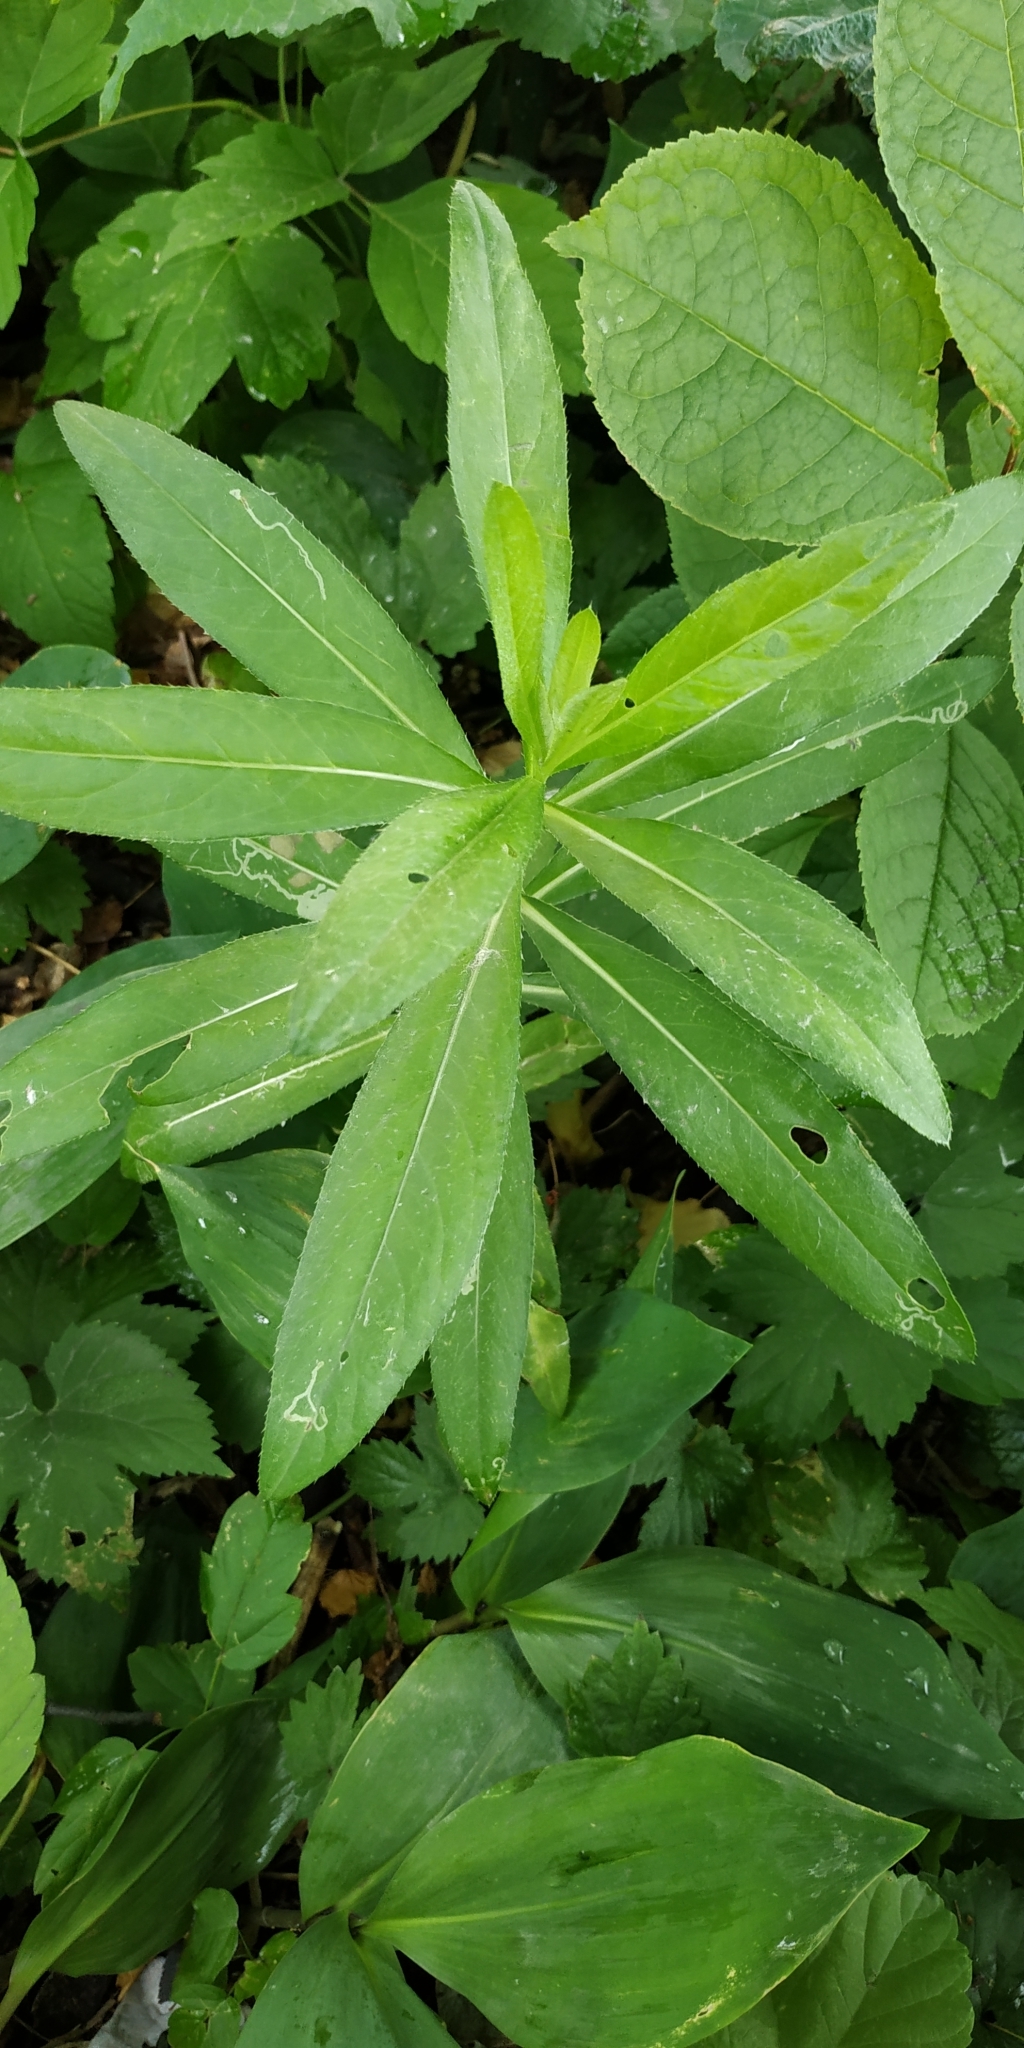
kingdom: Plantae
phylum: Tracheophyta
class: Magnoliopsida
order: Asterales
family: Asteraceae
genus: Cirsium
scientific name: Cirsium arvense
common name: Creeping thistle
